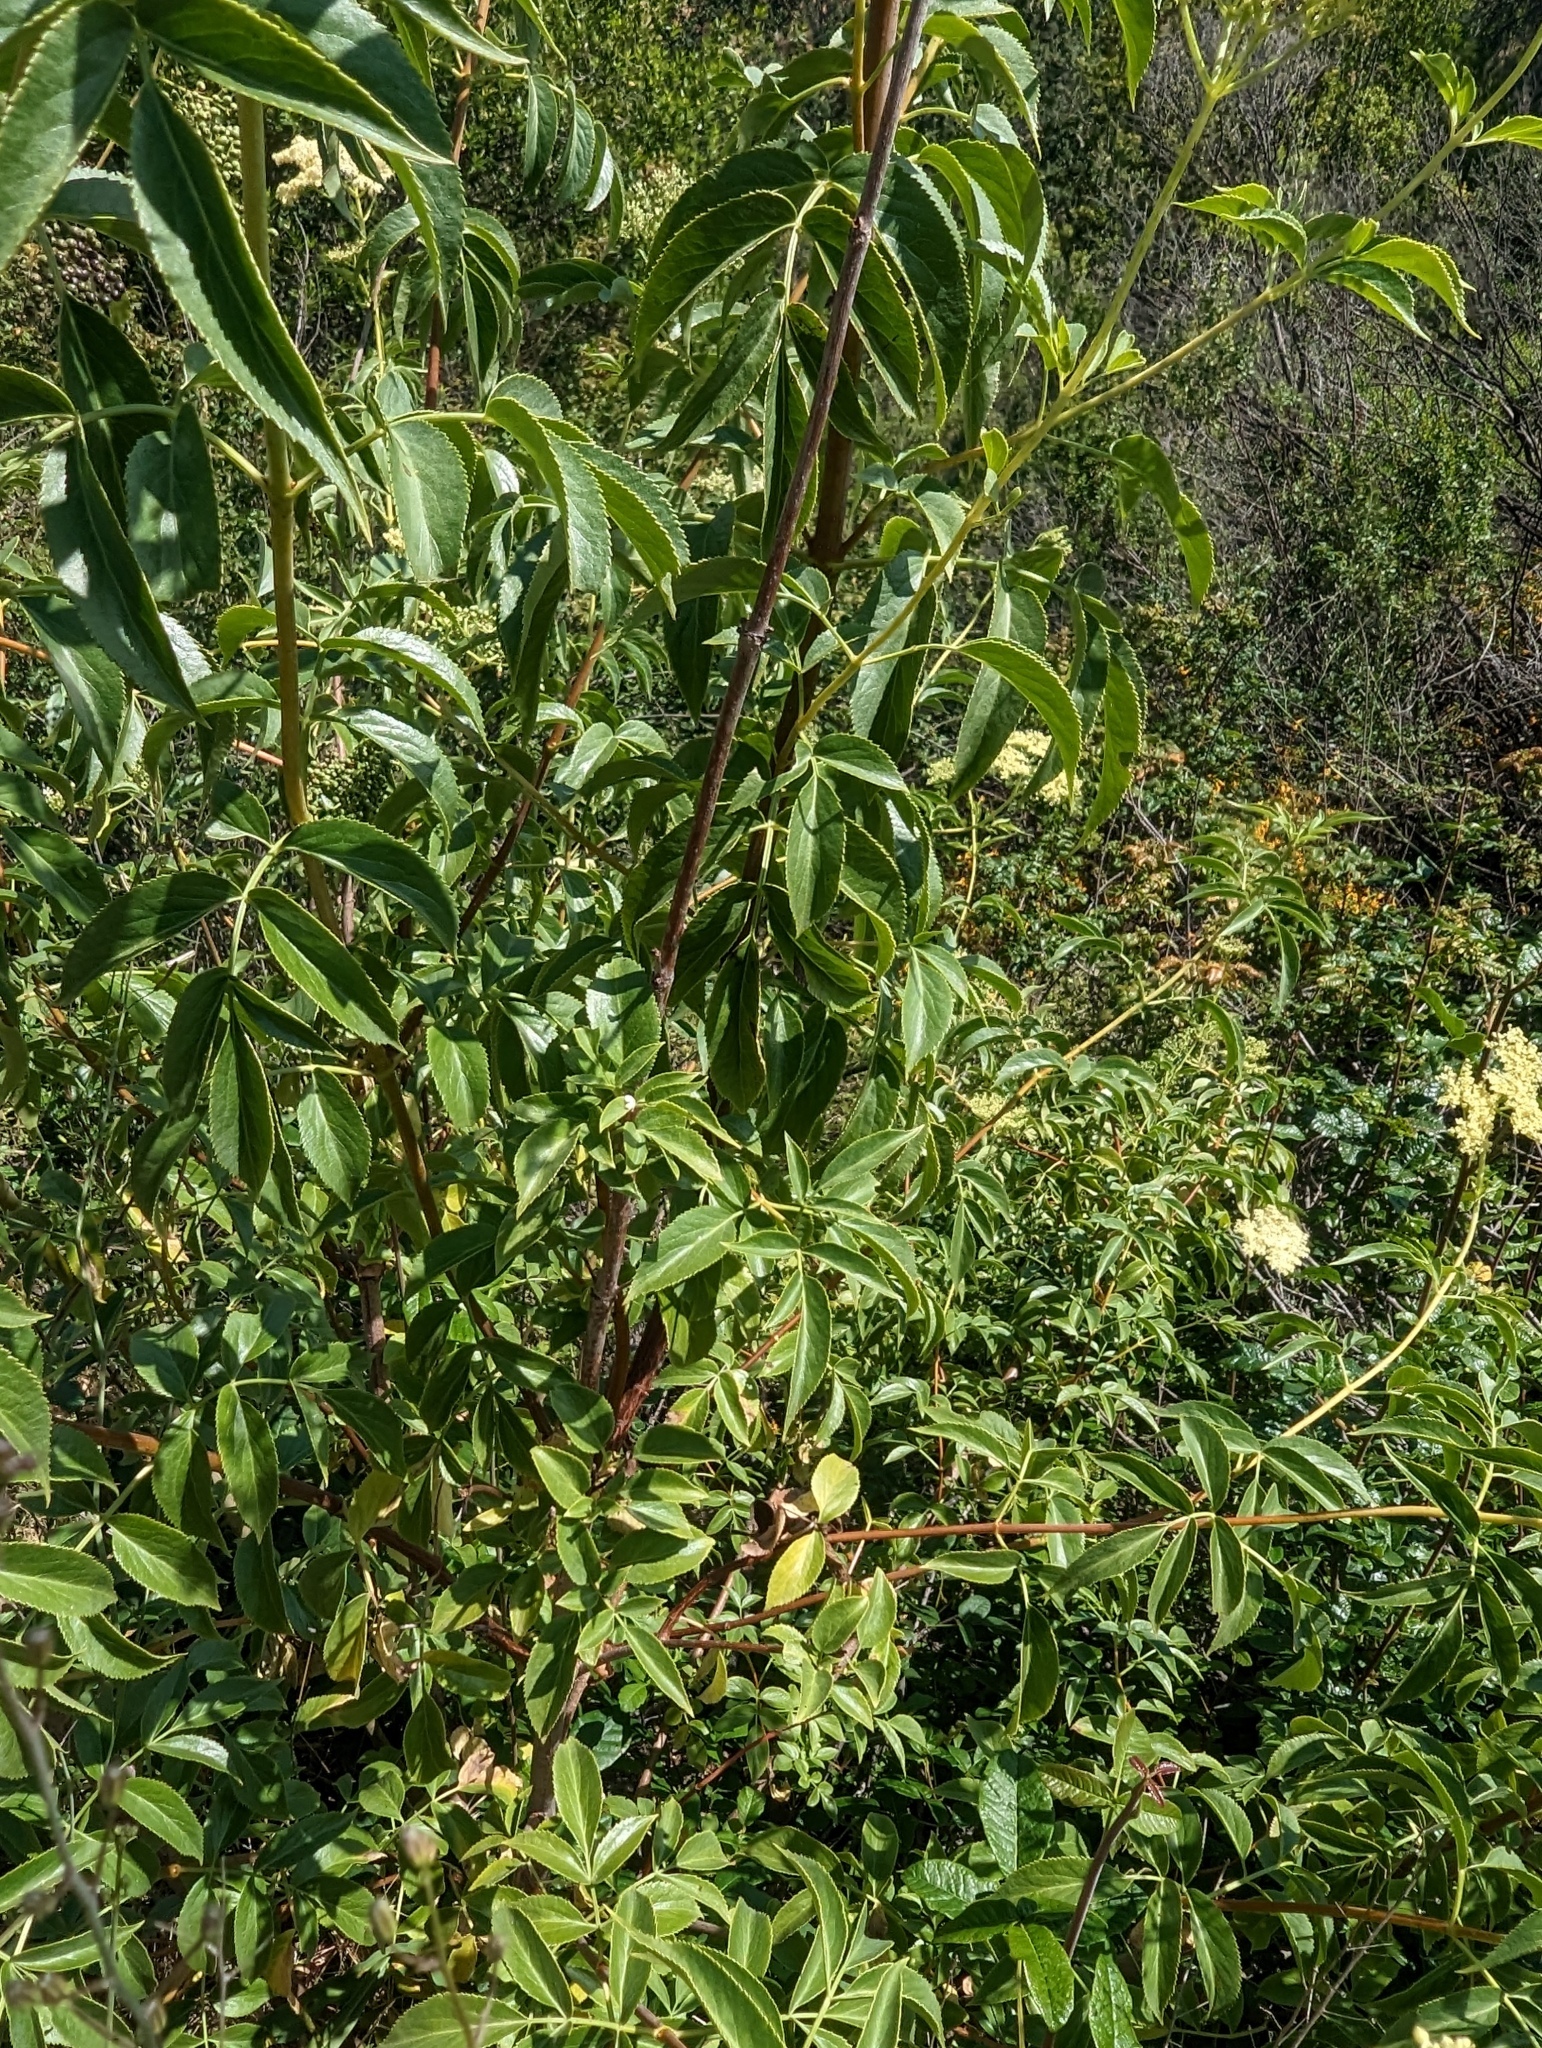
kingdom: Plantae
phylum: Tracheophyta
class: Magnoliopsida
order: Dipsacales
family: Viburnaceae
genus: Sambucus
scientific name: Sambucus cerulea
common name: Blue elder
